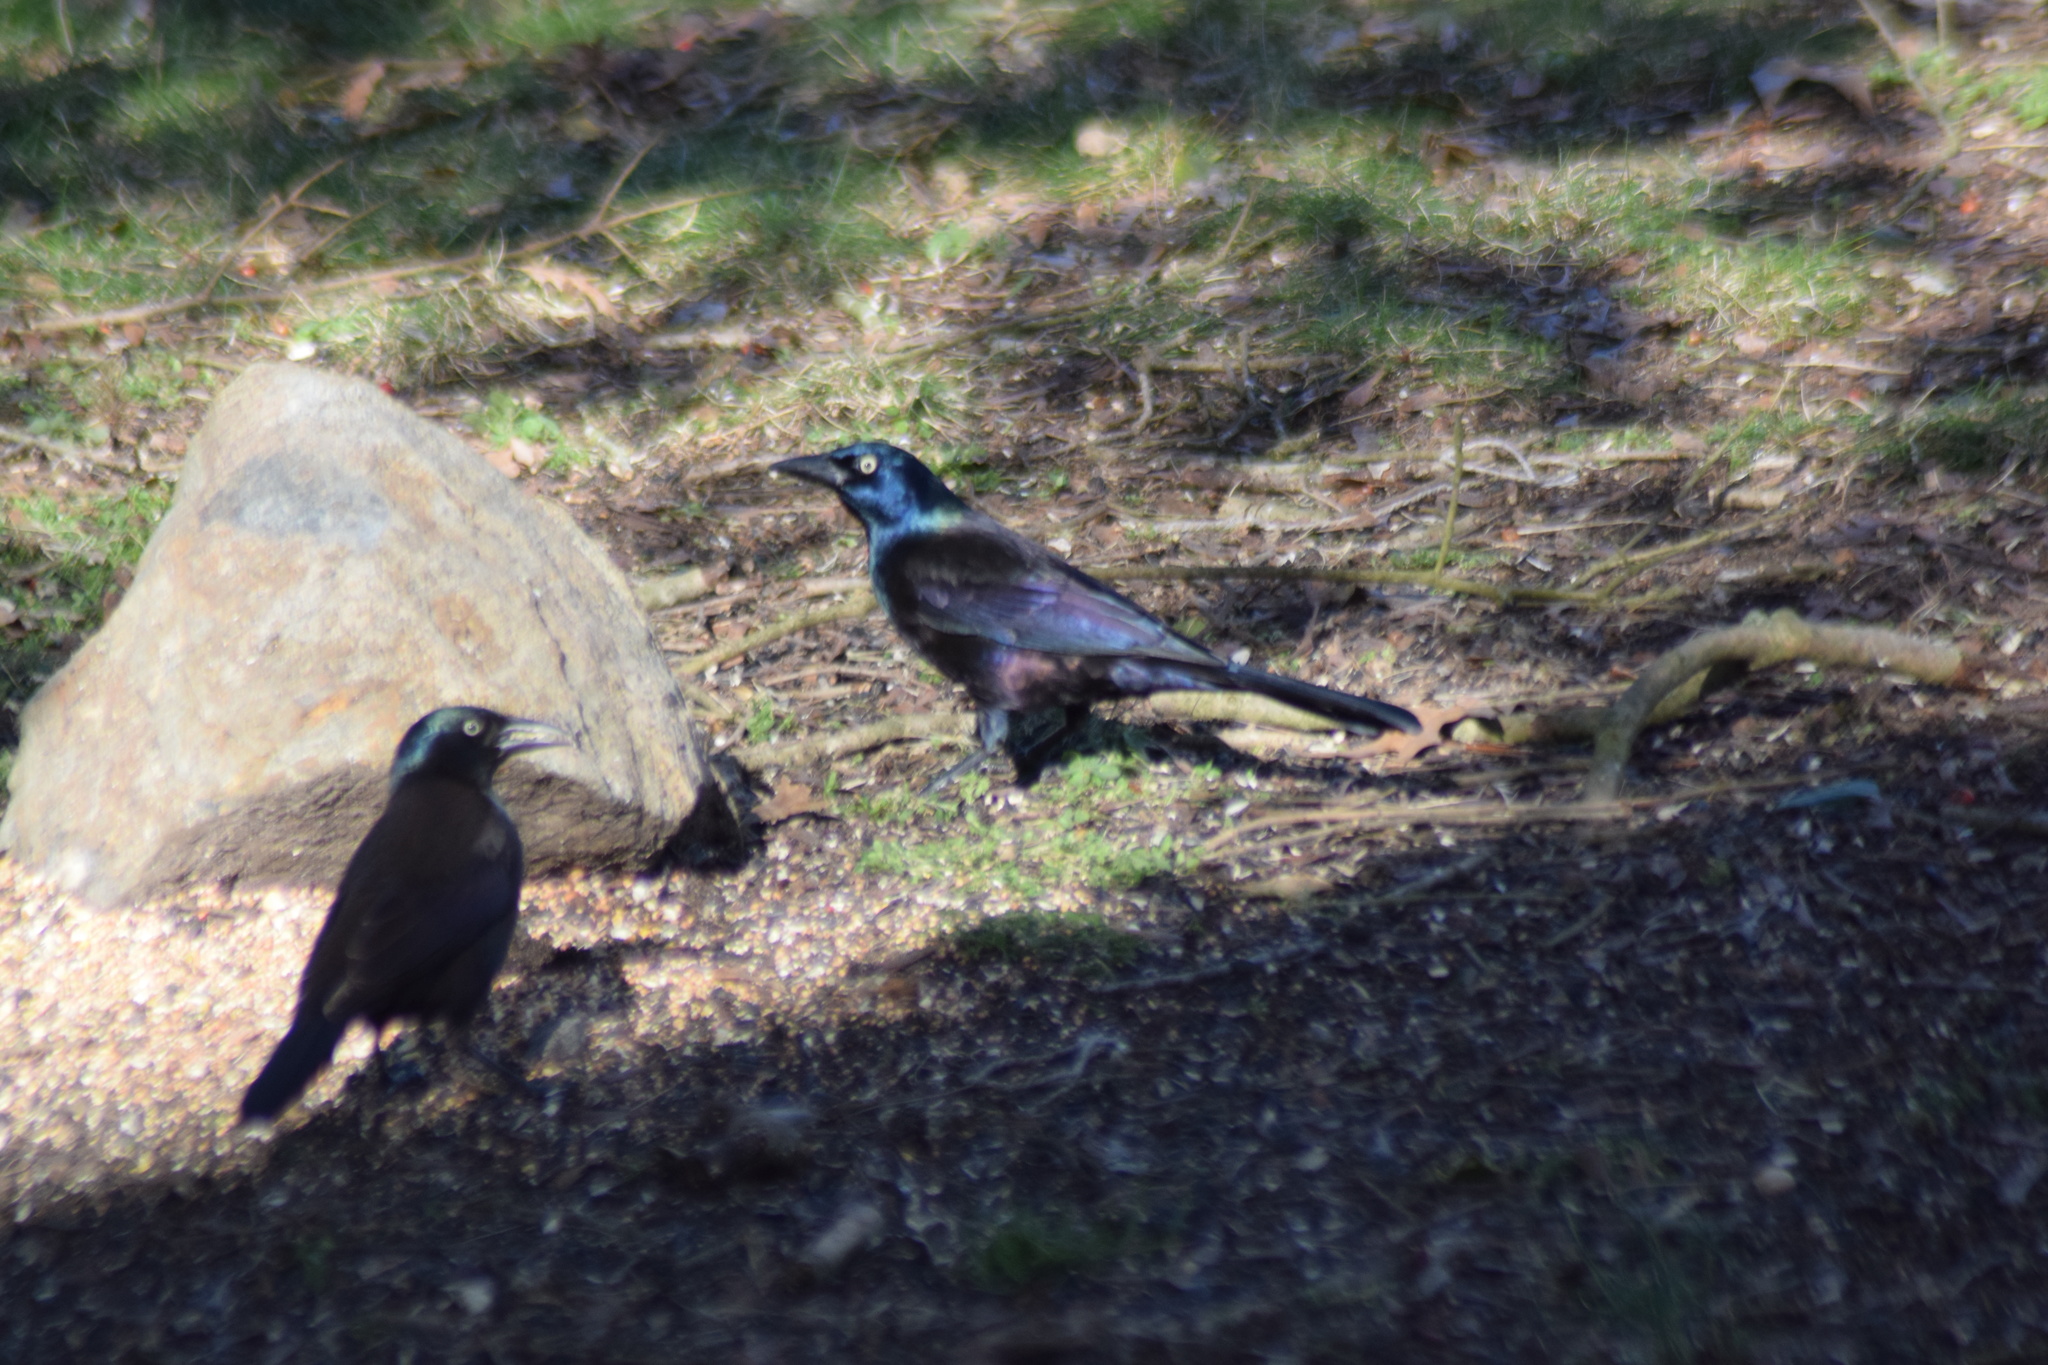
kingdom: Animalia
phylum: Chordata
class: Aves
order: Passeriformes
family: Icteridae
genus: Quiscalus
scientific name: Quiscalus quiscula
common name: Common grackle
